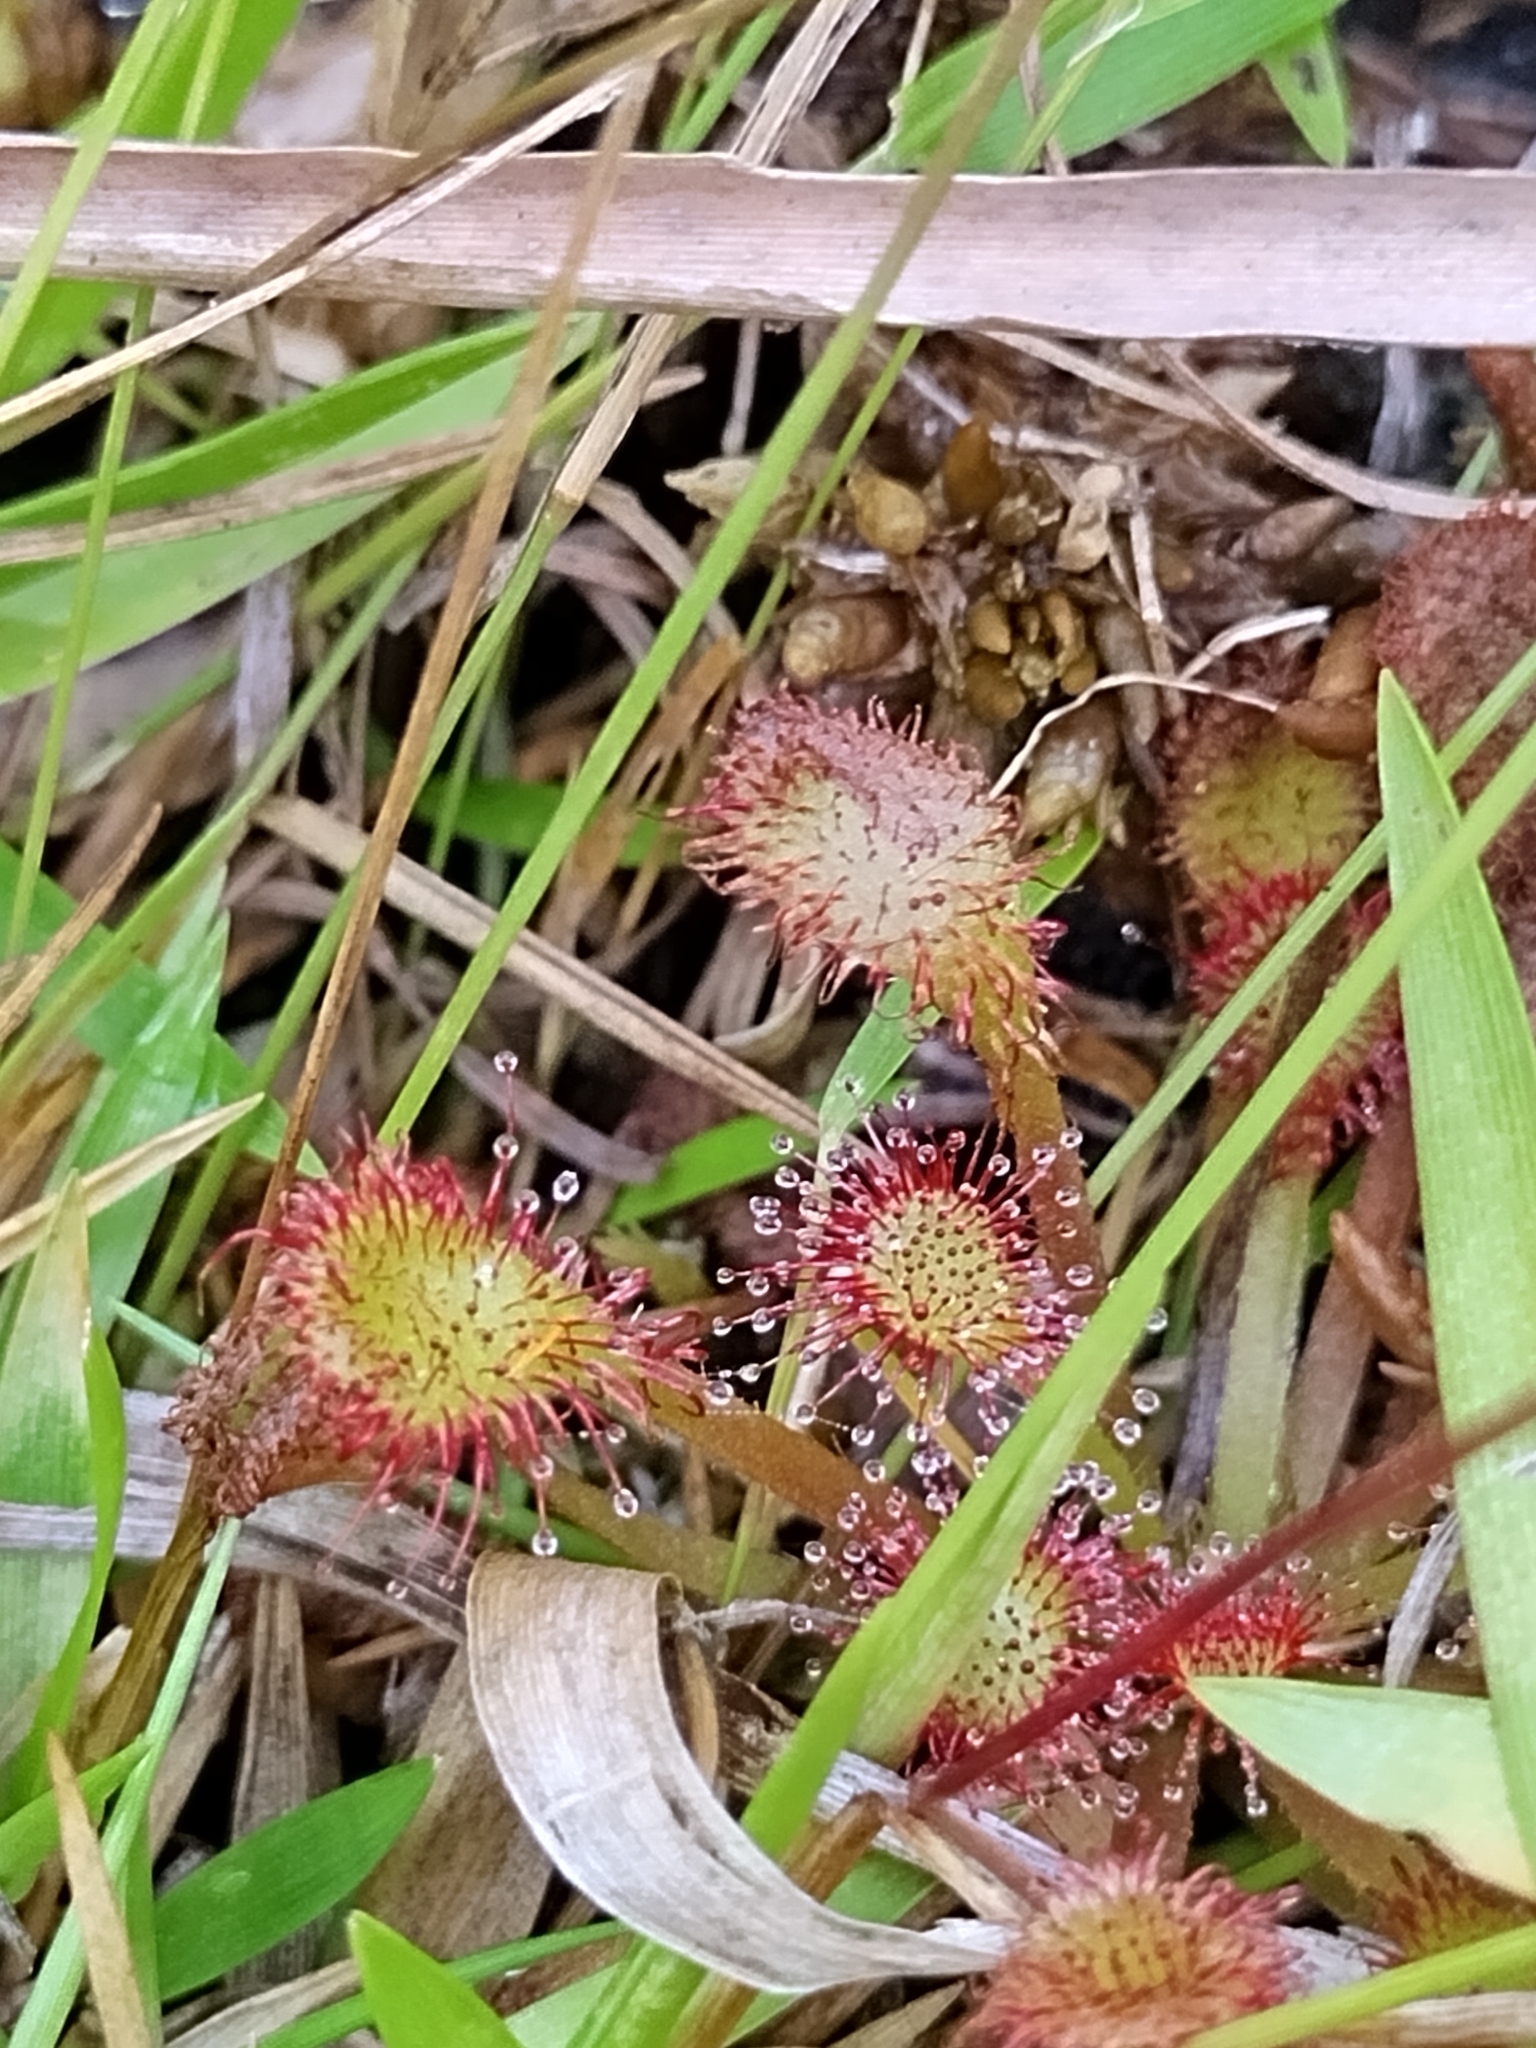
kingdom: Plantae
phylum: Tracheophyta
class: Magnoliopsida
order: Caryophyllales
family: Droseraceae
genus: Drosera
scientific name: Drosera capillaris
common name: Pink sundew
